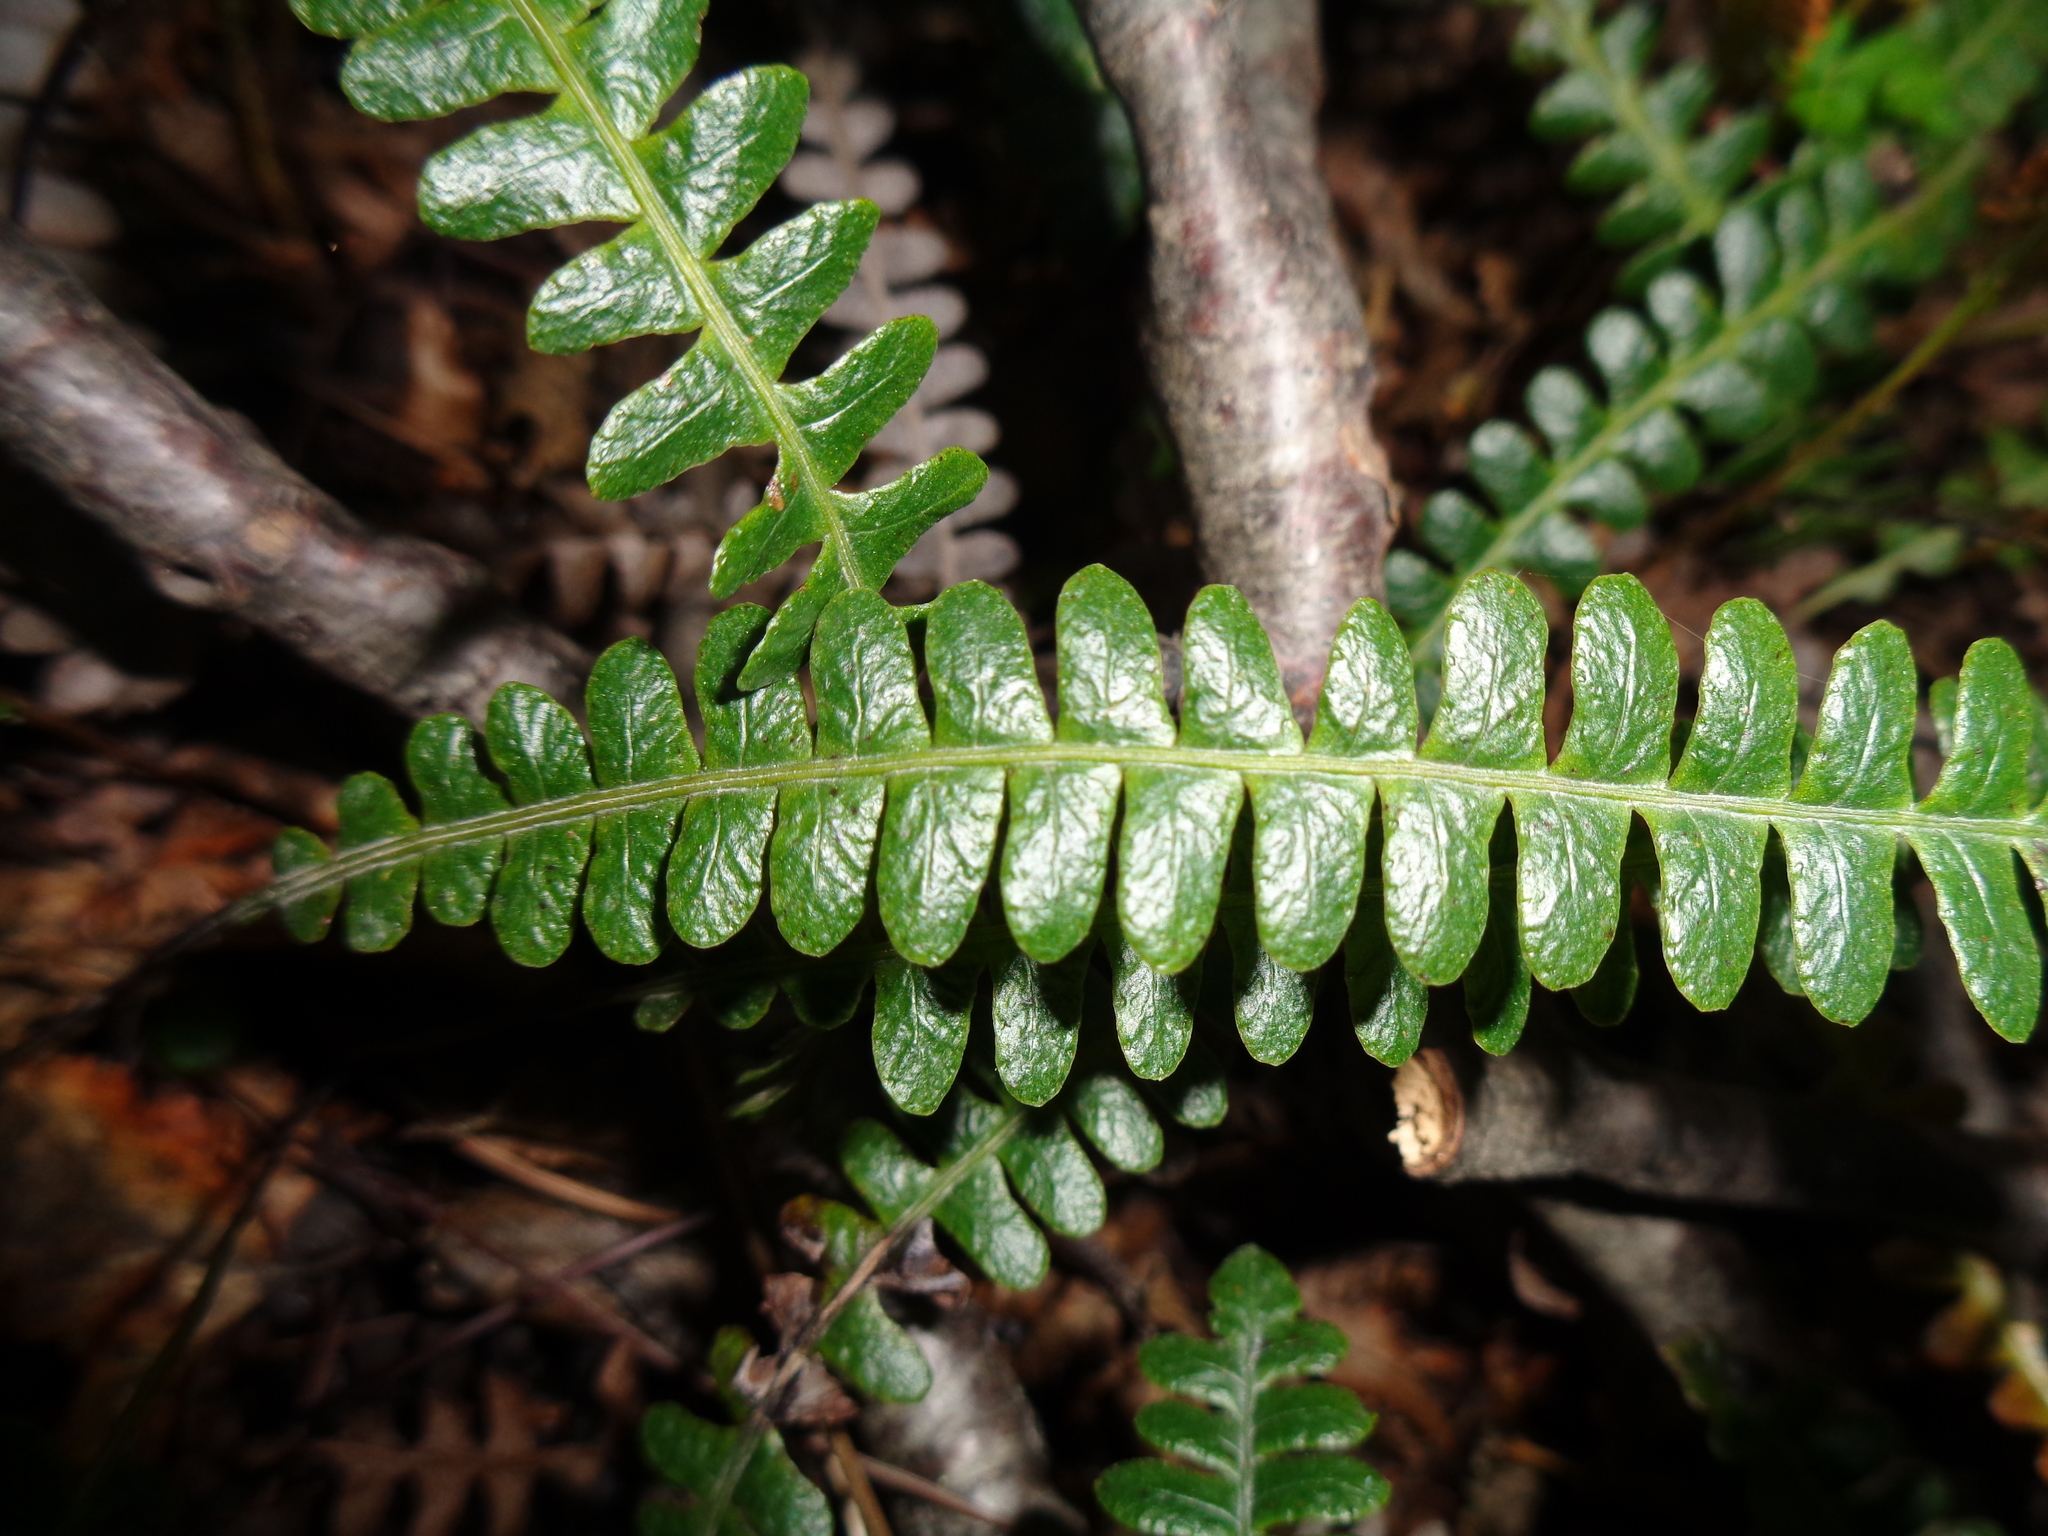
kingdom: Plantae
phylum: Tracheophyta
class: Polypodiopsida
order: Polypodiales
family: Blechnaceae
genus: Austroblechnum
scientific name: Austroblechnum penna-marina
